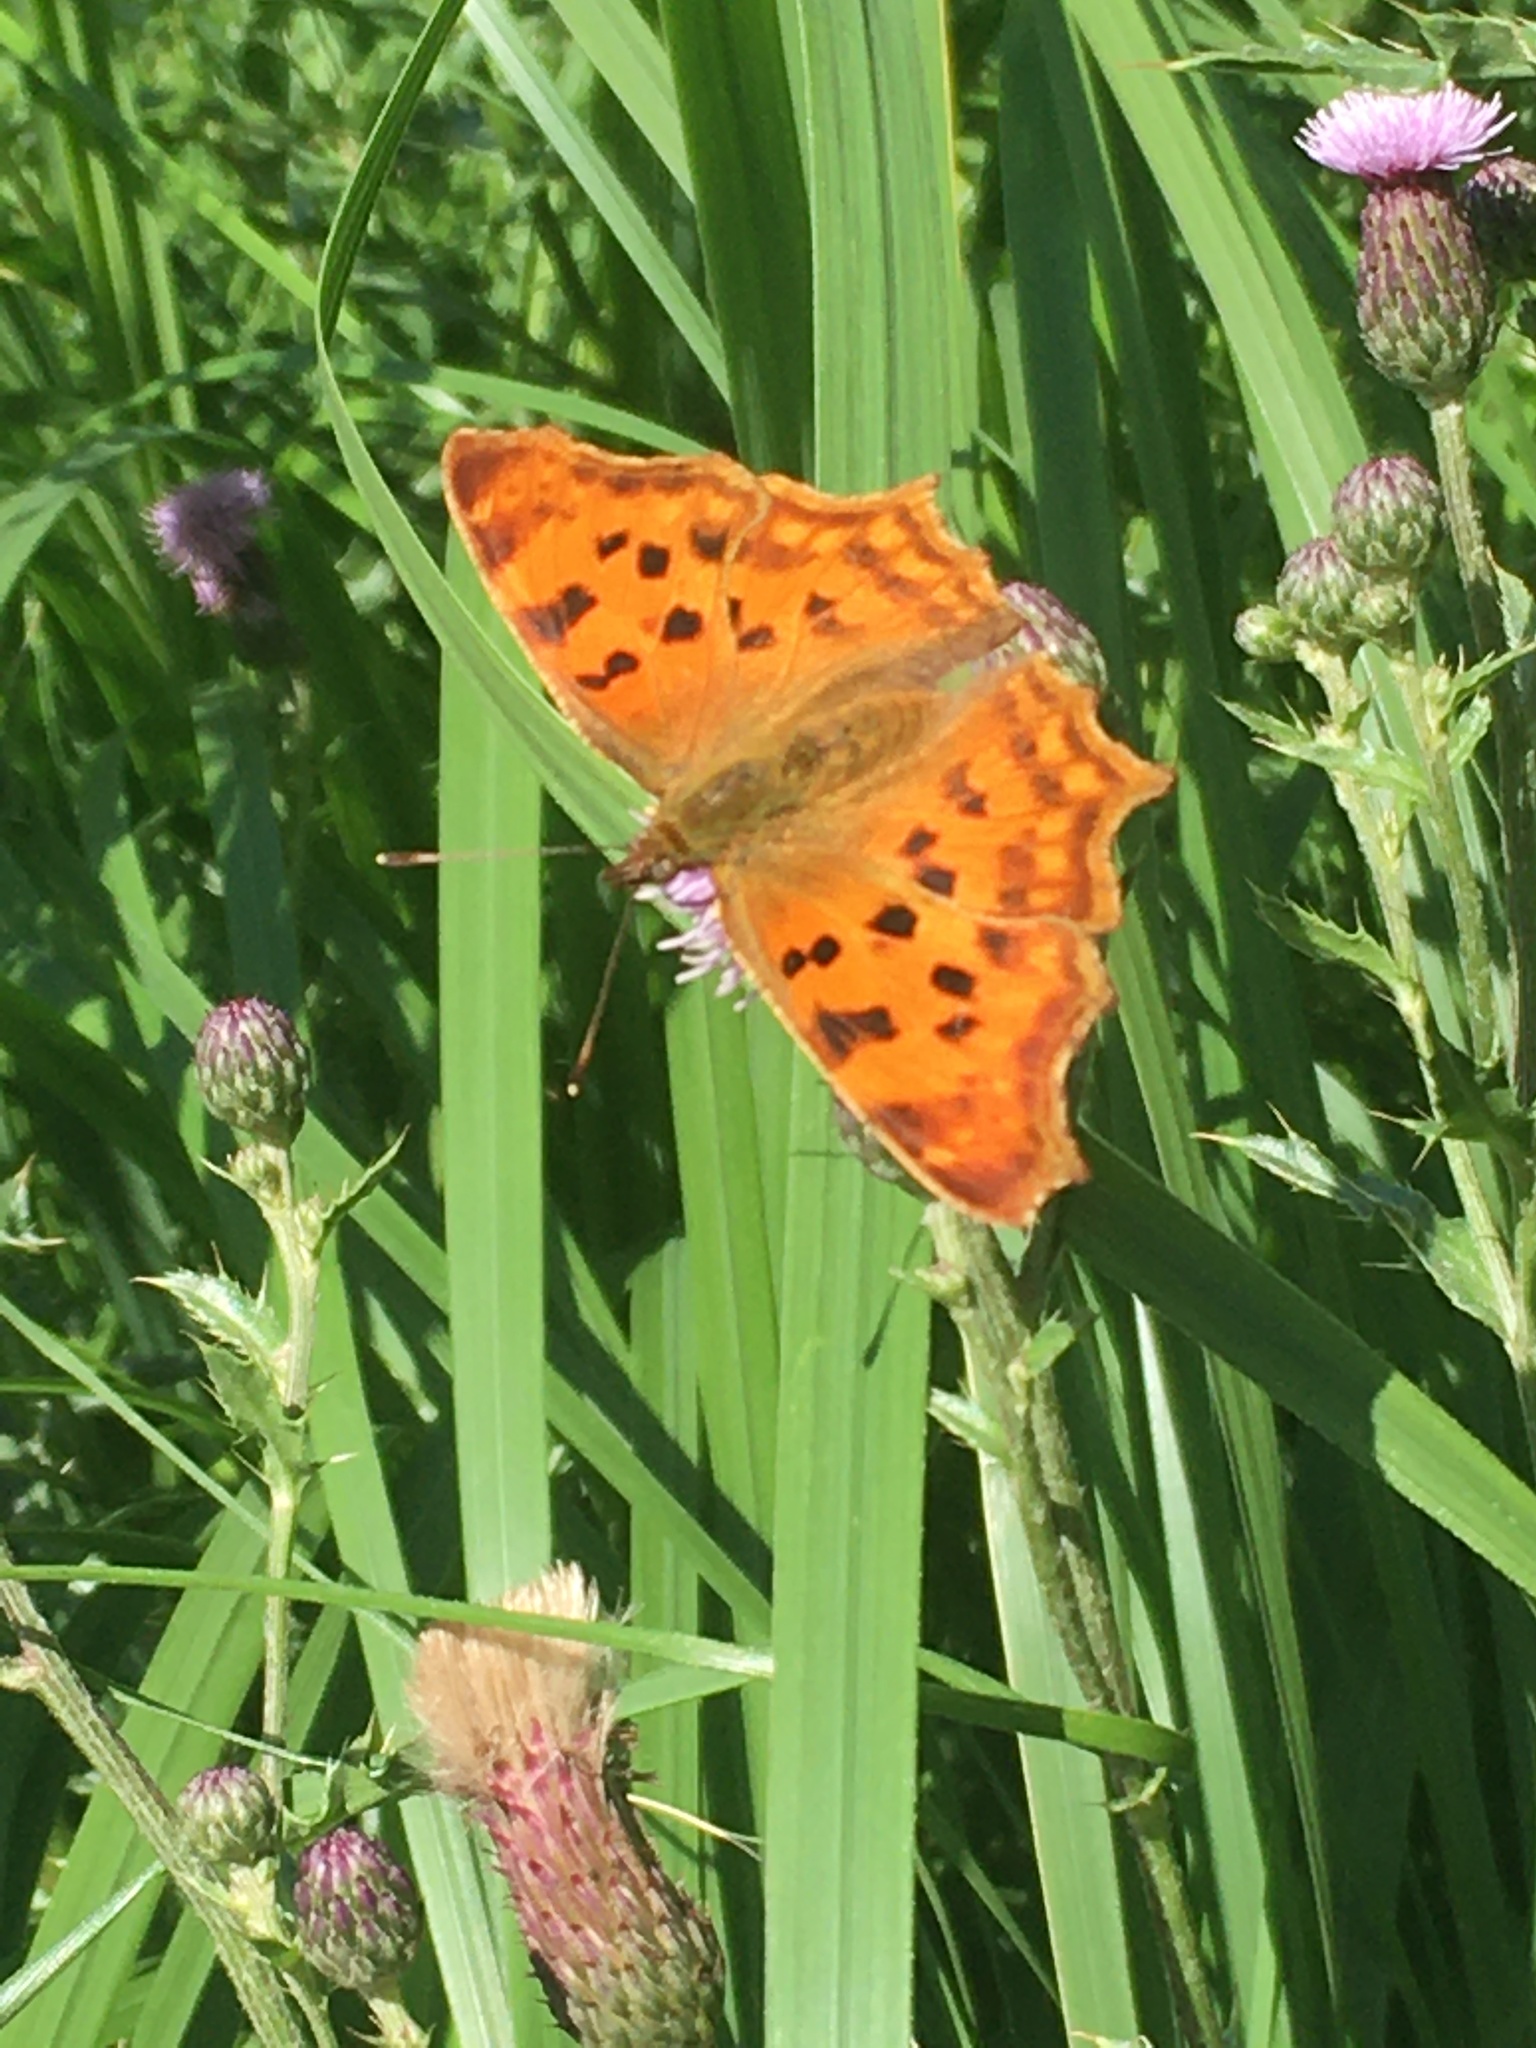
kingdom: Animalia
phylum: Arthropoda
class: Insecta
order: Lepidoptera
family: Nymphalidae
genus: Polygonia
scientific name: Polygonia c-album
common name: Comma
